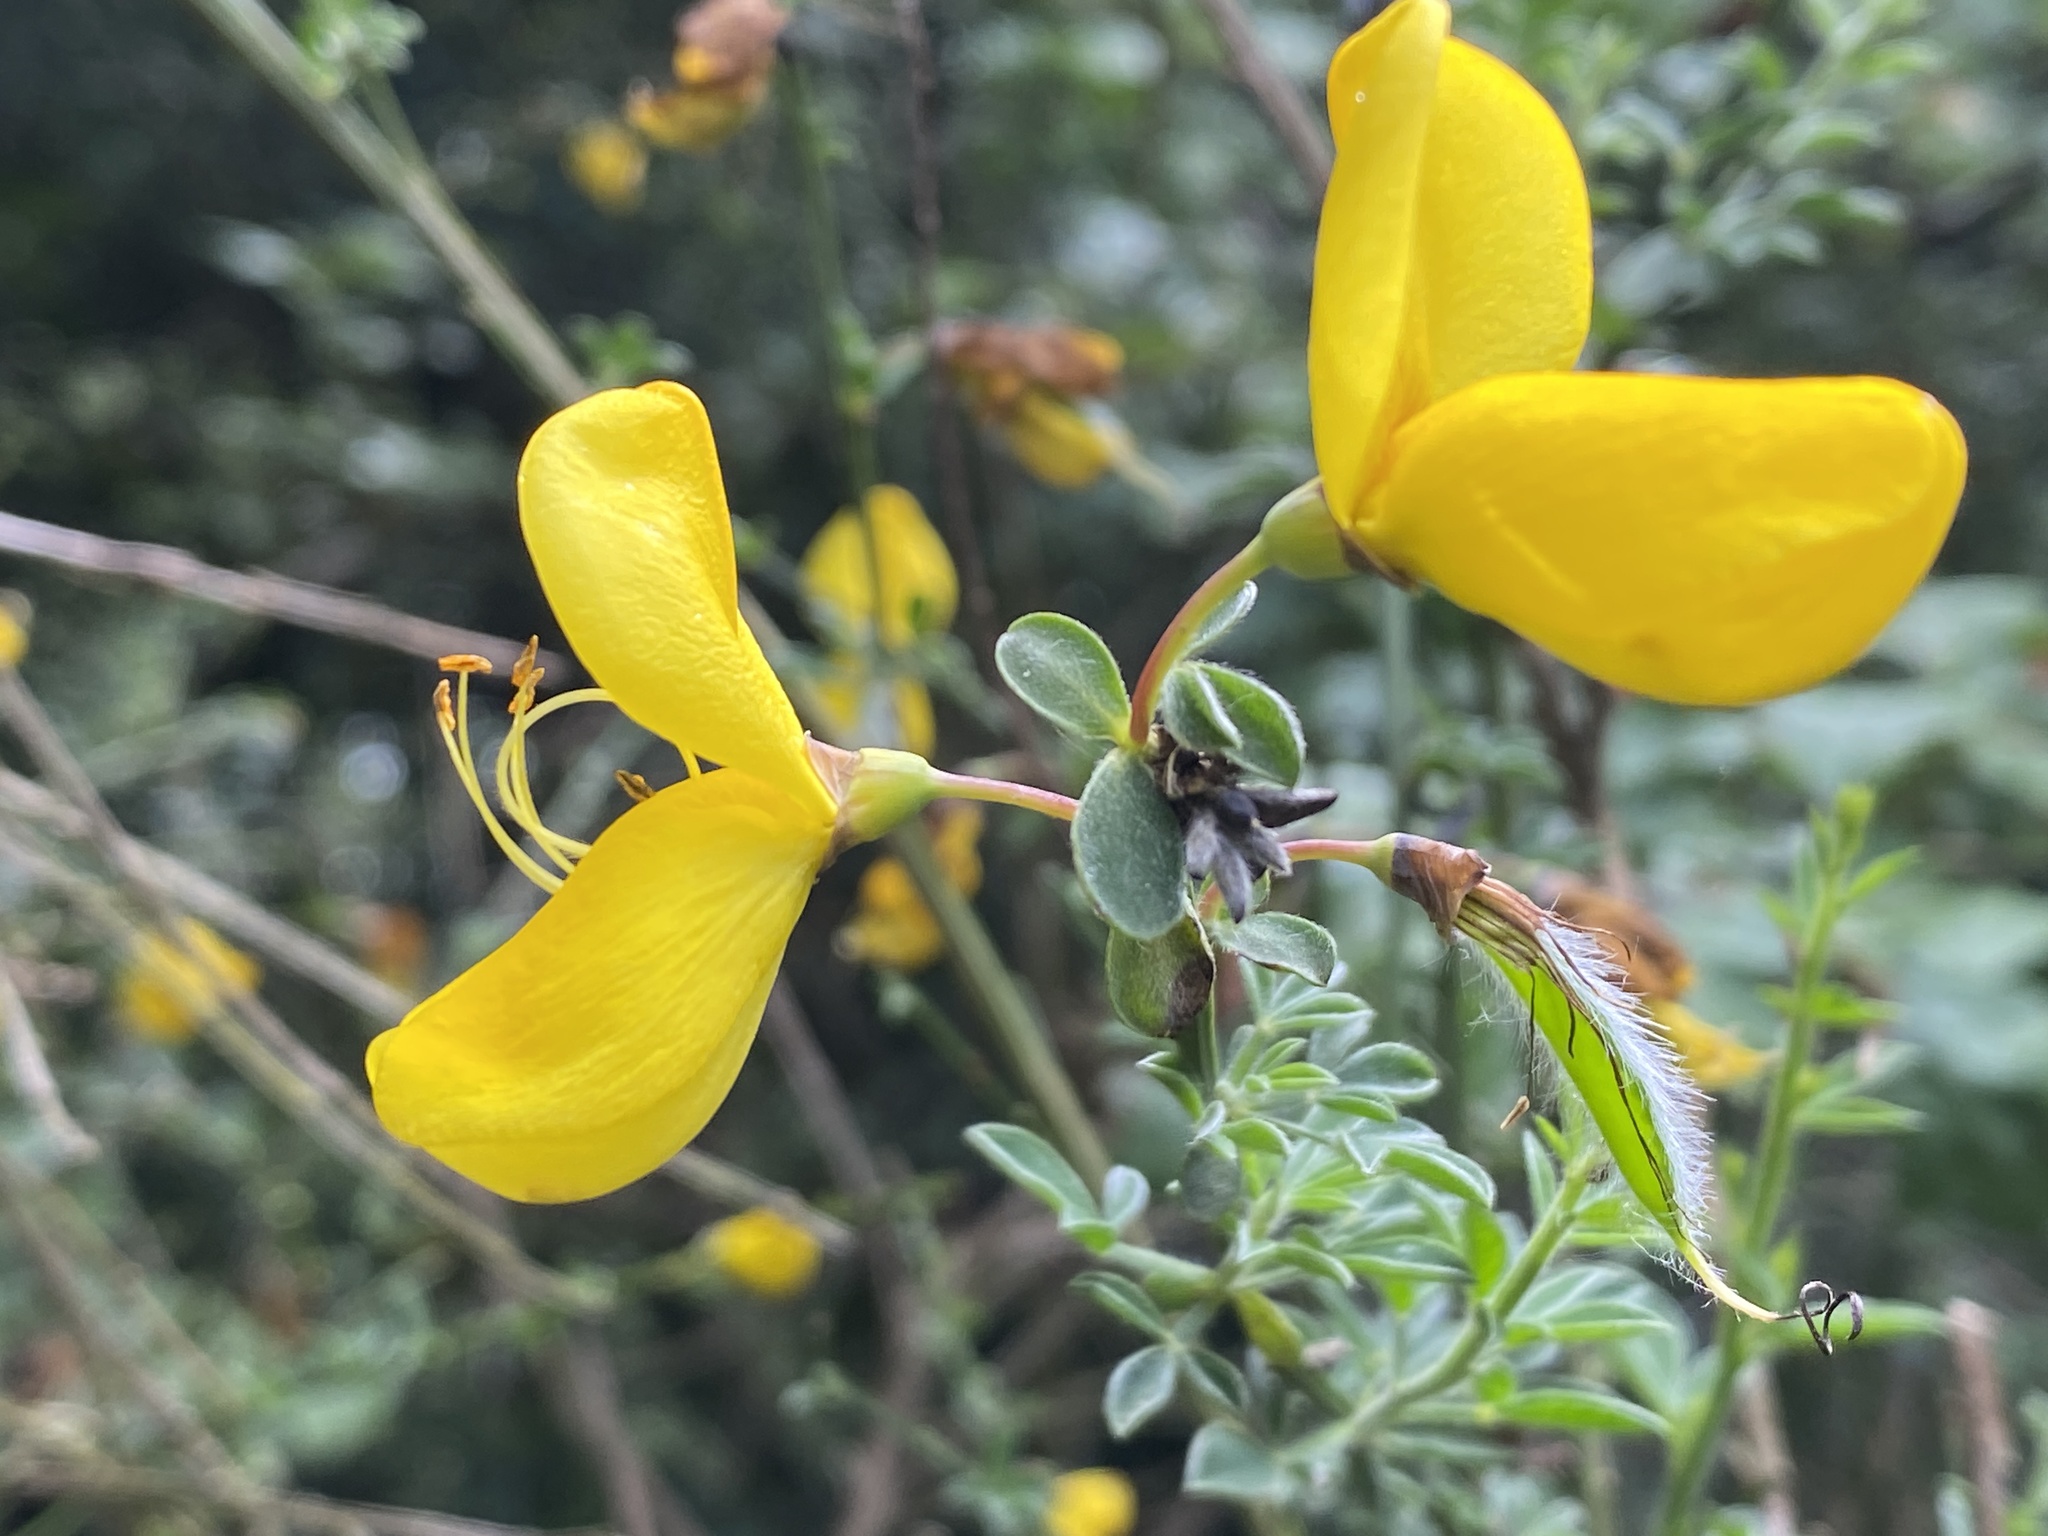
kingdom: Plantae
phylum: Tracheophyta
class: Magnoliopsida
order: Fabales
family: Fabaceae
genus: Cytisus
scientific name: Cytisus scoparius
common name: Scotch broom
